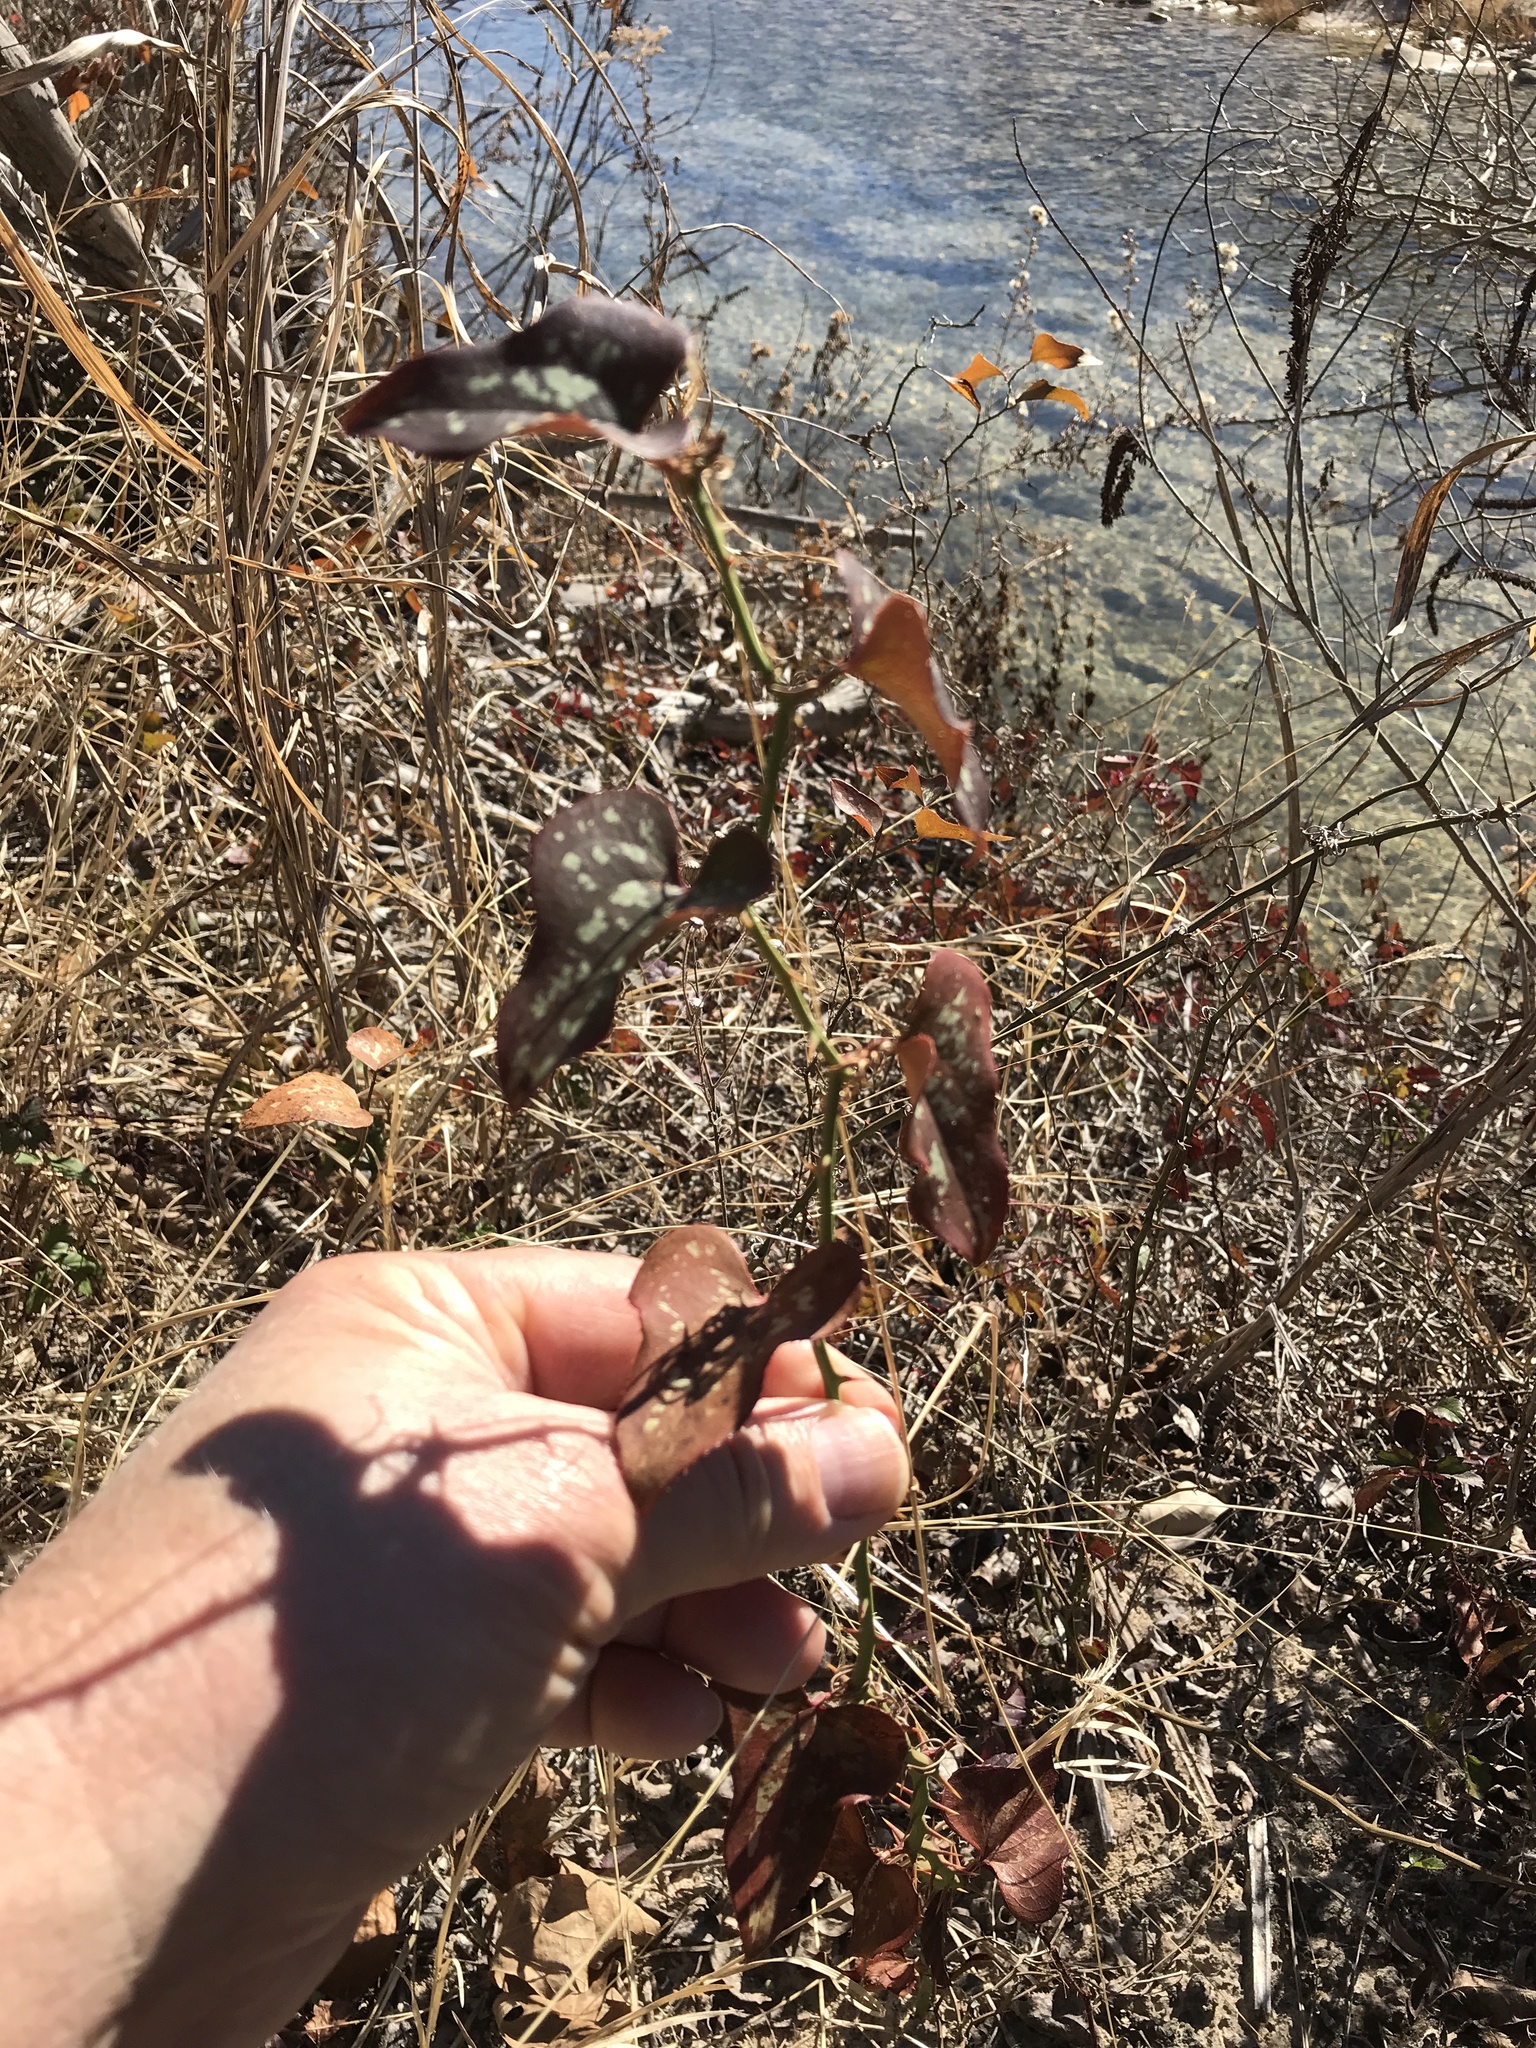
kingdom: Plantae
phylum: Tracheophyta
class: Liliopsida
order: Liliales
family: Smilacaceae
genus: Smilax
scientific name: Smilax bona-nox
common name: Catbrier
